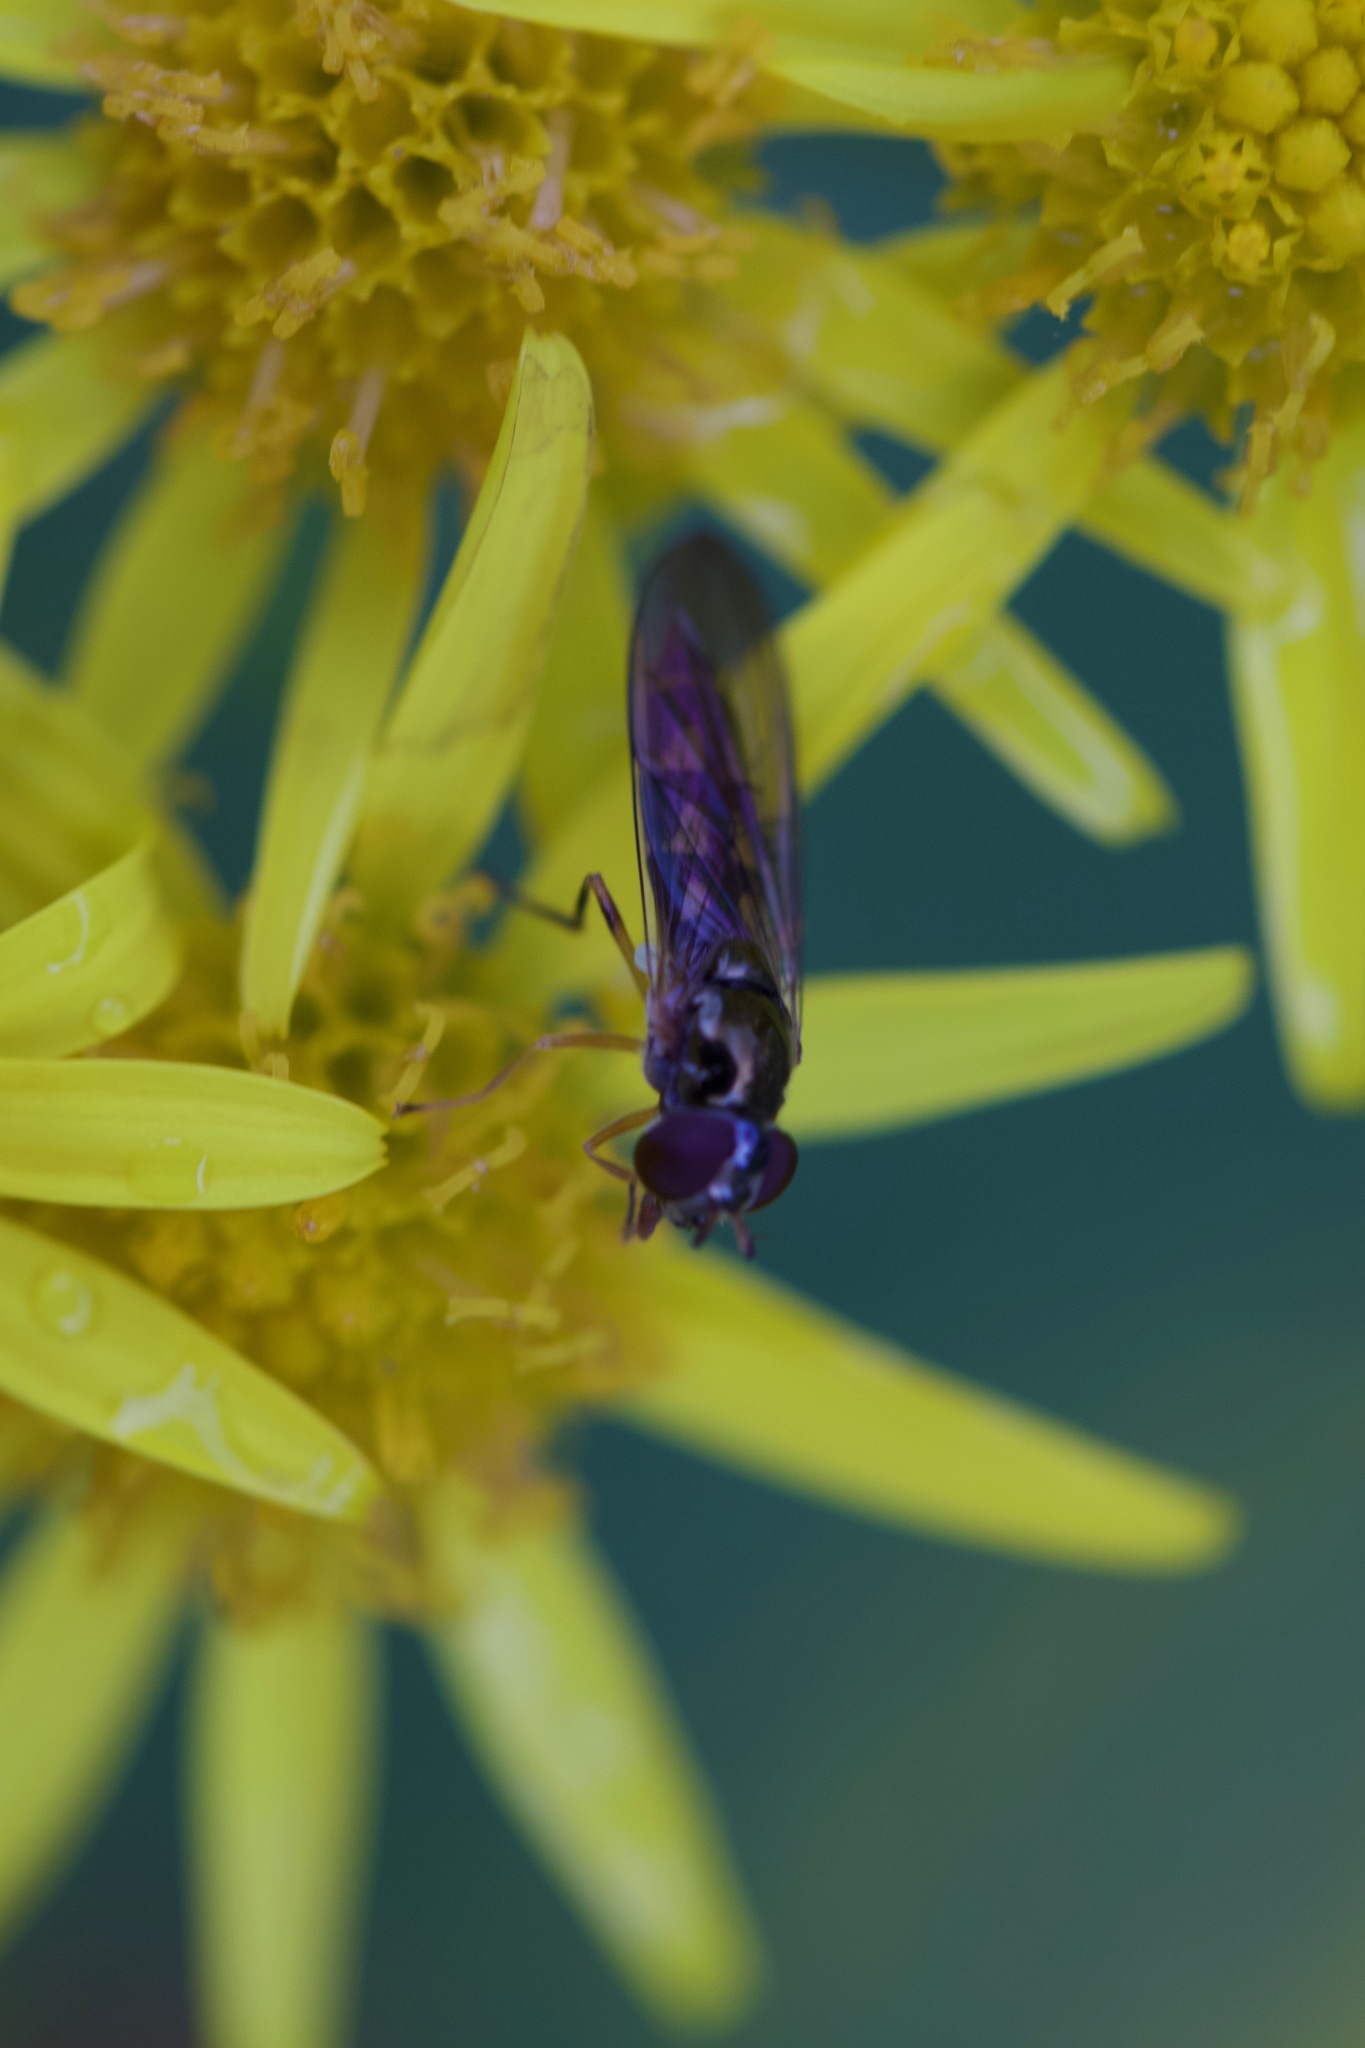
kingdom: Animalia
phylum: Arthropoda
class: Insecta
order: Diptera
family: Syrphidae
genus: Melanostoma
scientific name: Melanostoma scalare
